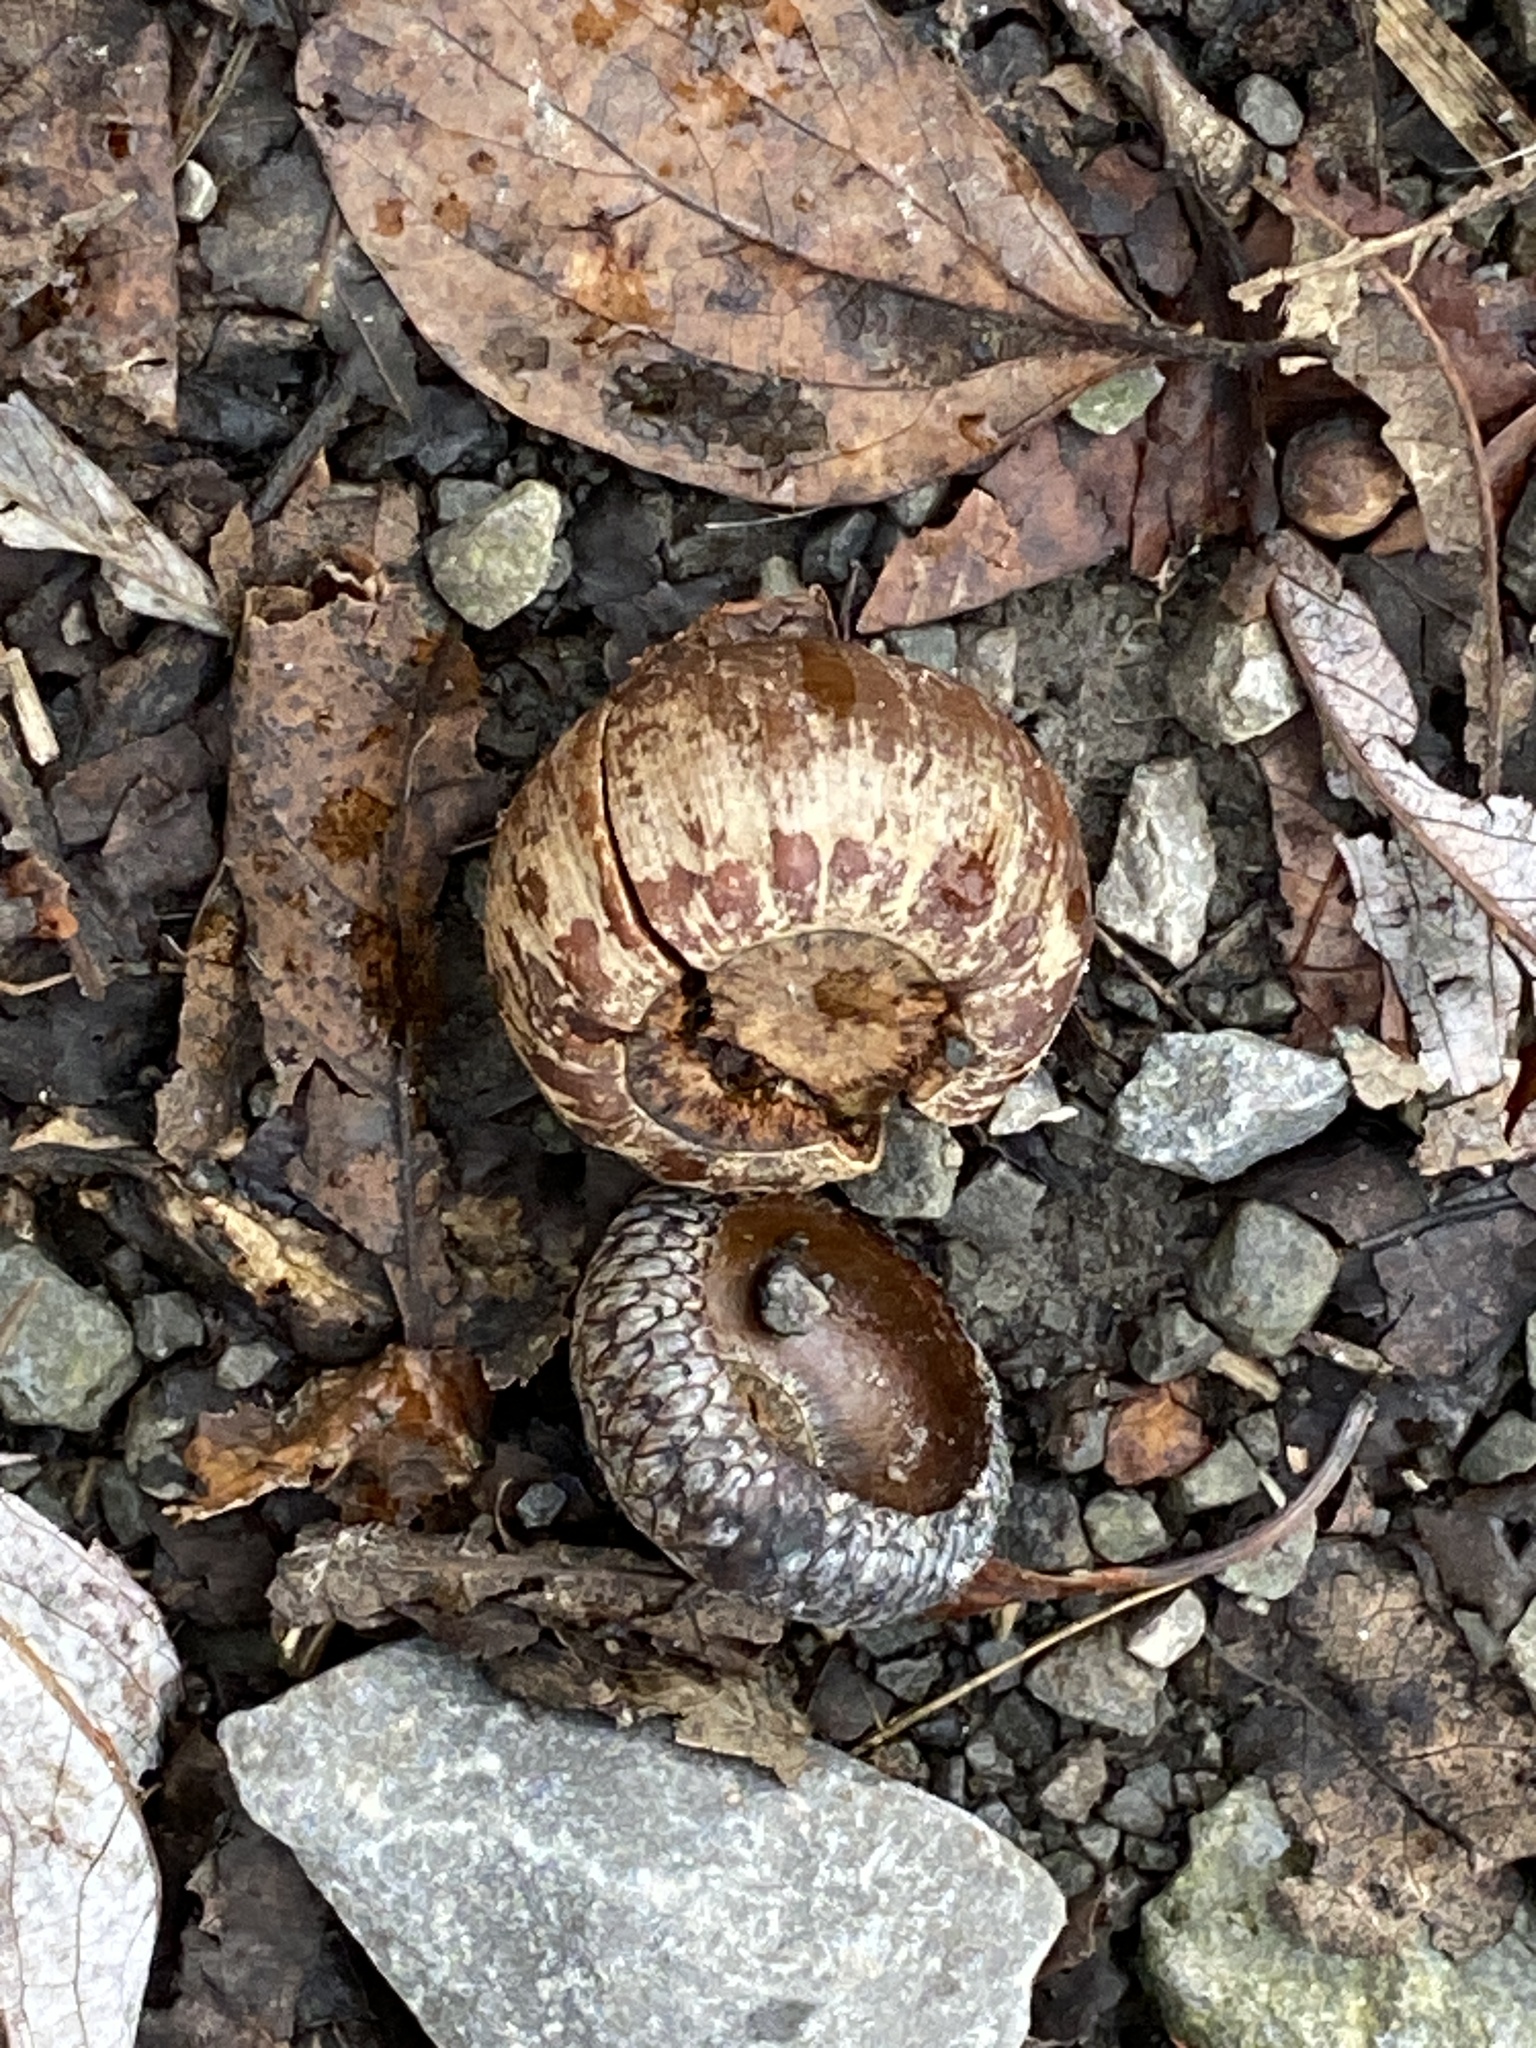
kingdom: Plantae
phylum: Tracheophyta
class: Magnoliopsida
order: Fagales
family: Fagaceae
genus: Quercus
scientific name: Quercus rubra
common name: Red oak
